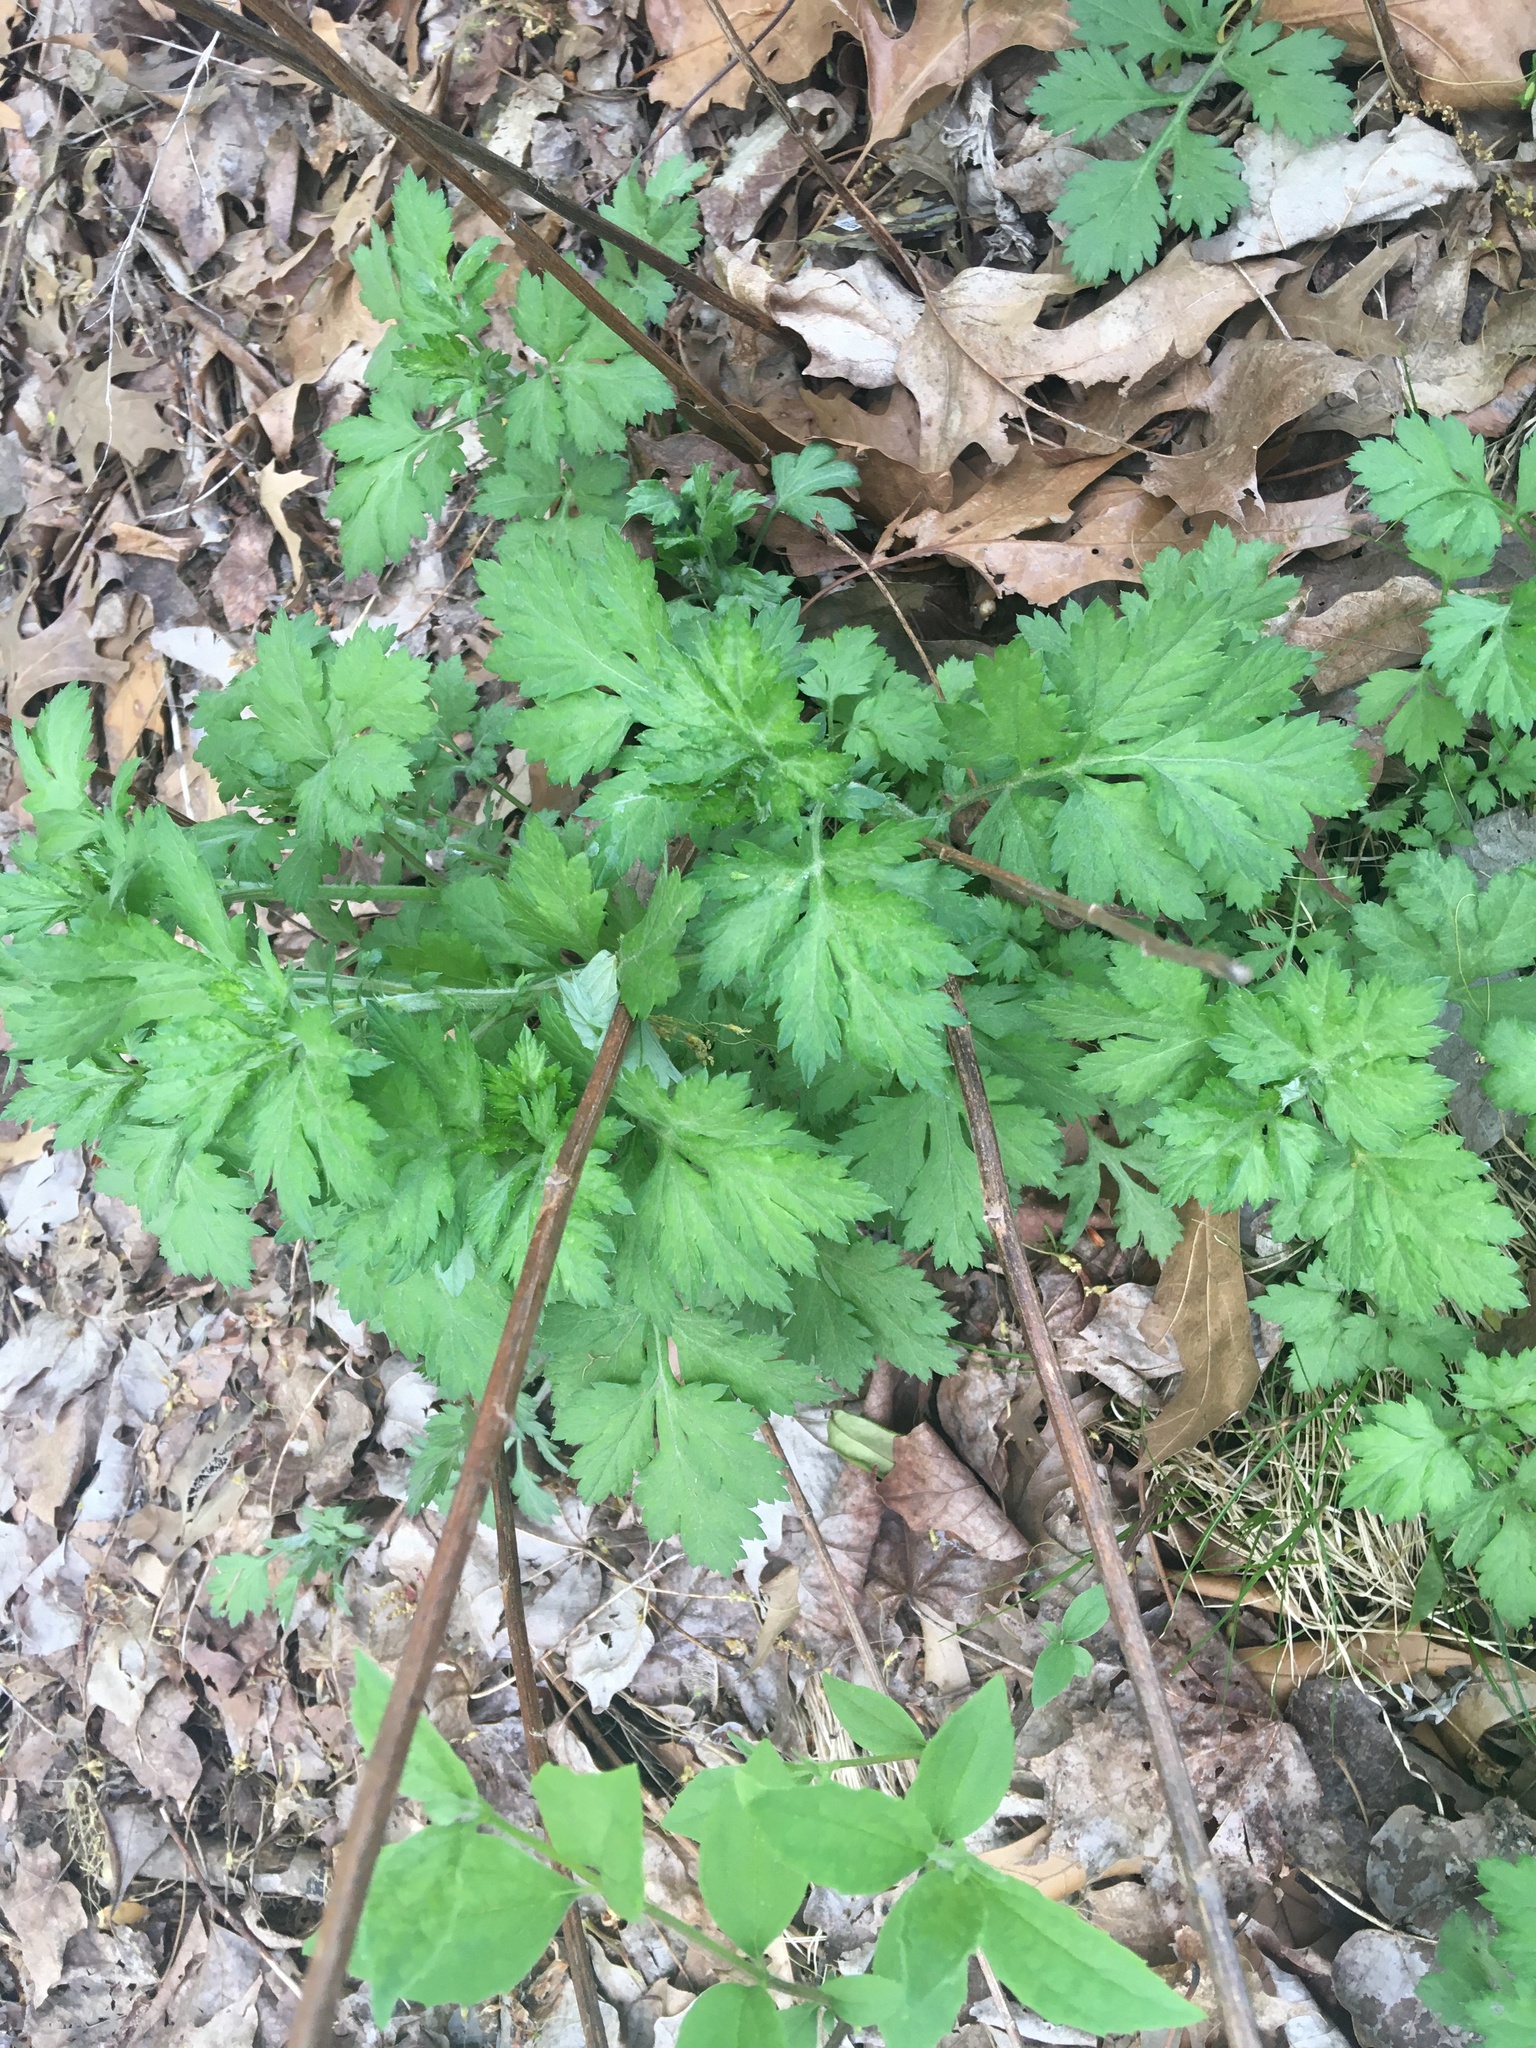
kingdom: Plantae
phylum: Tracheophyta
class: Magnoliopsida
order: Asterales
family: Asteraceae
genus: Artemisia
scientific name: Artemisia vulgaris
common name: Mugwort
